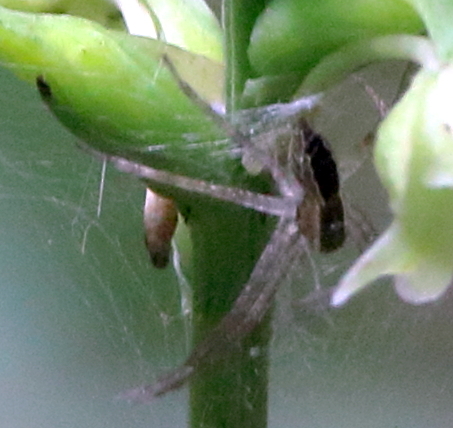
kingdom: Animalia
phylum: Arthropoda
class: Arachnida
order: Araneae
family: Pisauridae
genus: Pisaurina
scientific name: Pisaurina mira
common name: American nursery web spider
